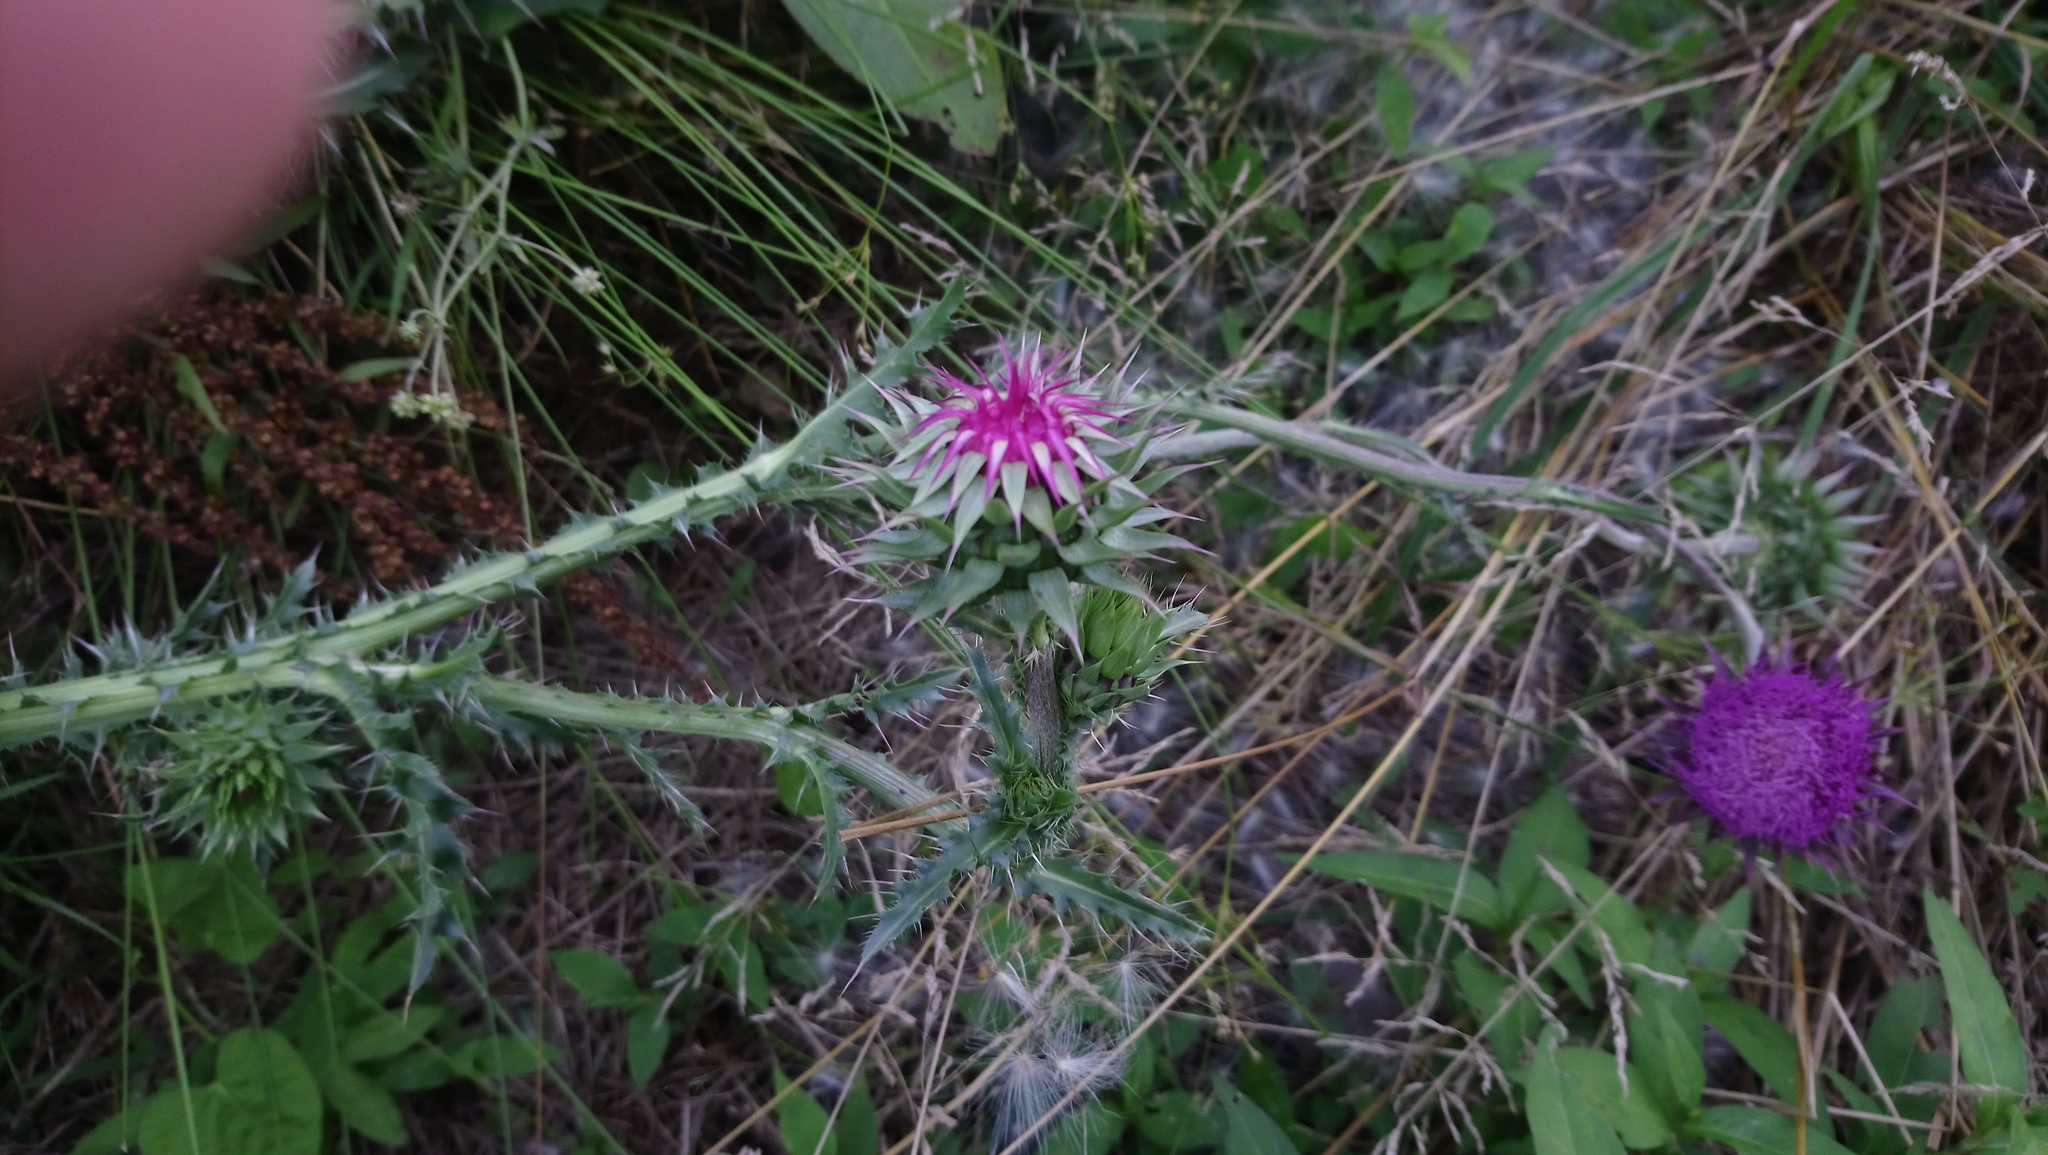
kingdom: Plantae
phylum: Tracheophyta
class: Magnoliopsida
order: Asterales
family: Asteraceae
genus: Carduus
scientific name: Carduus nutans
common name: Musk thistle
